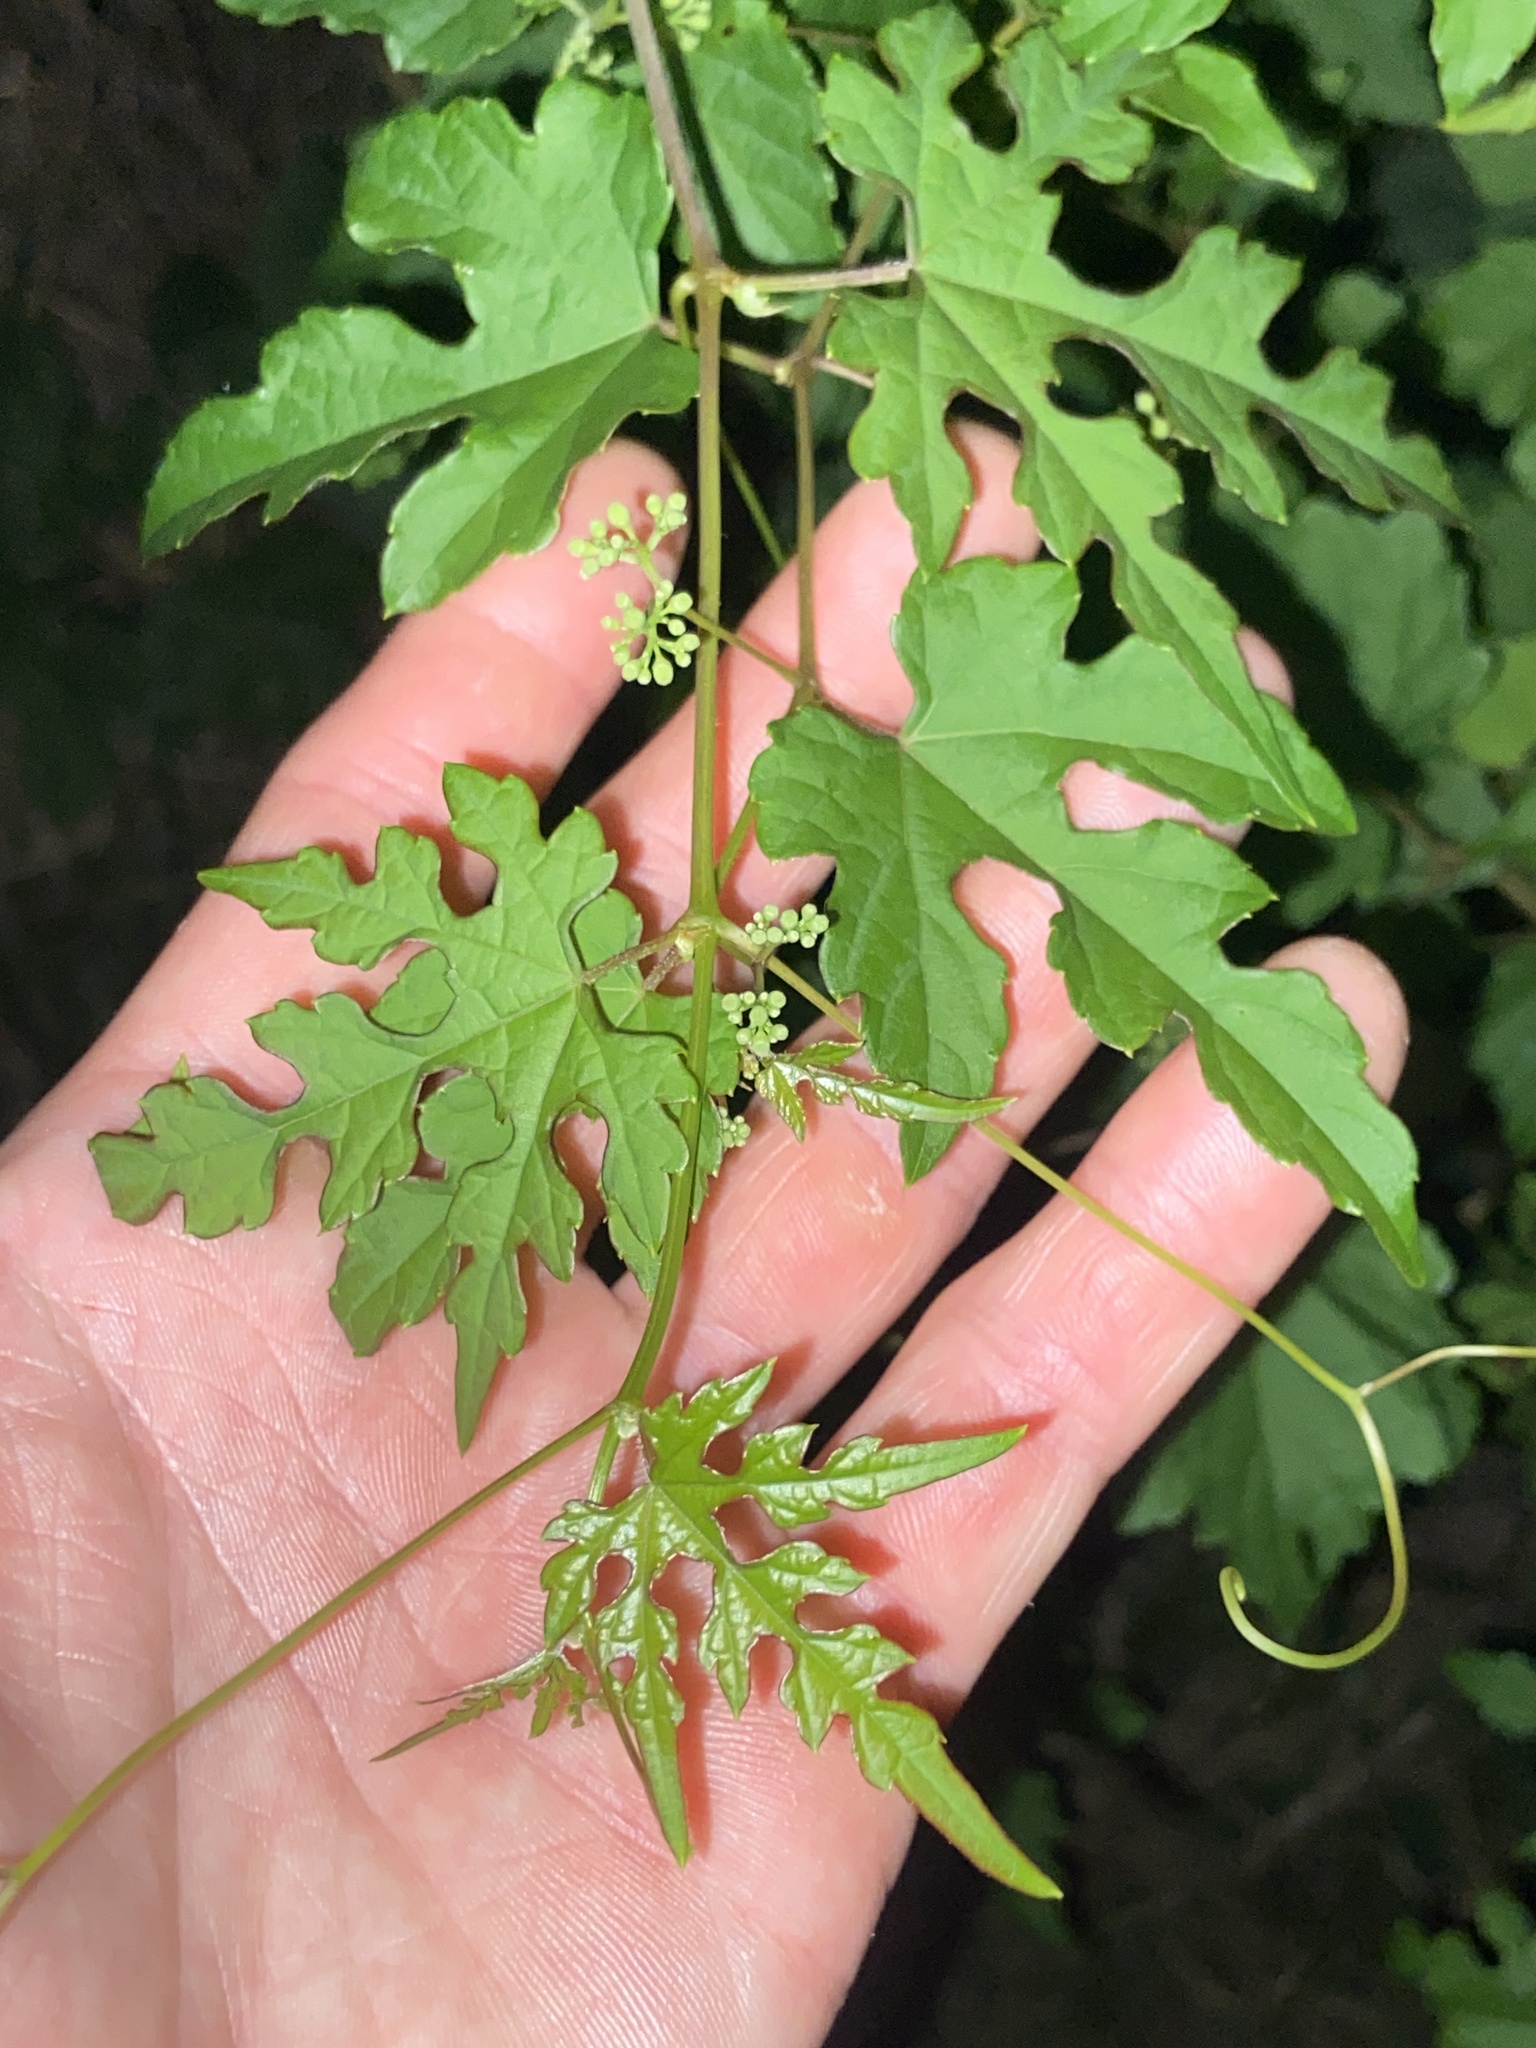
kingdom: Plantae
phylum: Tracheophyta
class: Magnoliopsida
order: Vitales
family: Vitaceae
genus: Ampelopsis
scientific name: Ampelopsis glandulosa
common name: Amur peppervine
